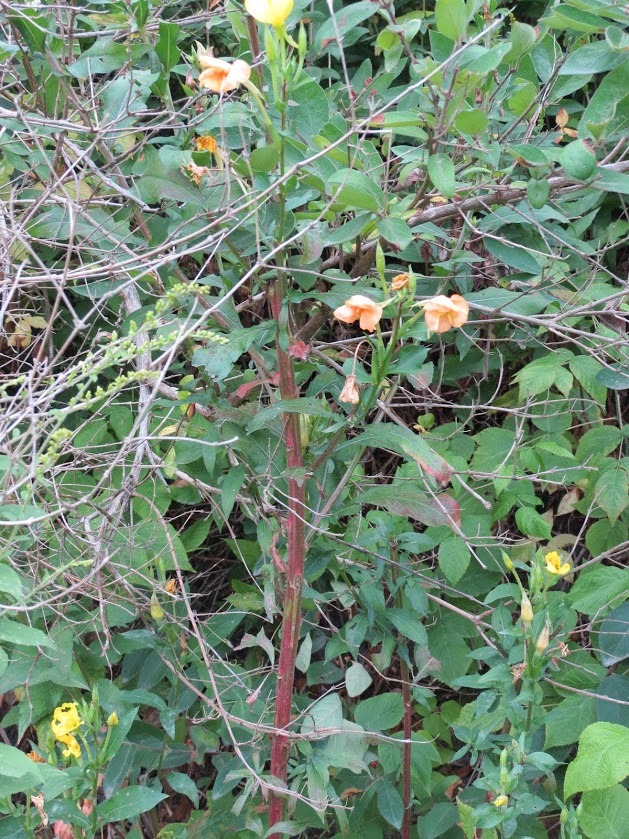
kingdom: Plantae
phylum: Tracheophyta
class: Magnoliopsida
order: Myrtales
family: Onagraceae
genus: Oenothera
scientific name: Oenothera biennis
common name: Common evening-primrose
